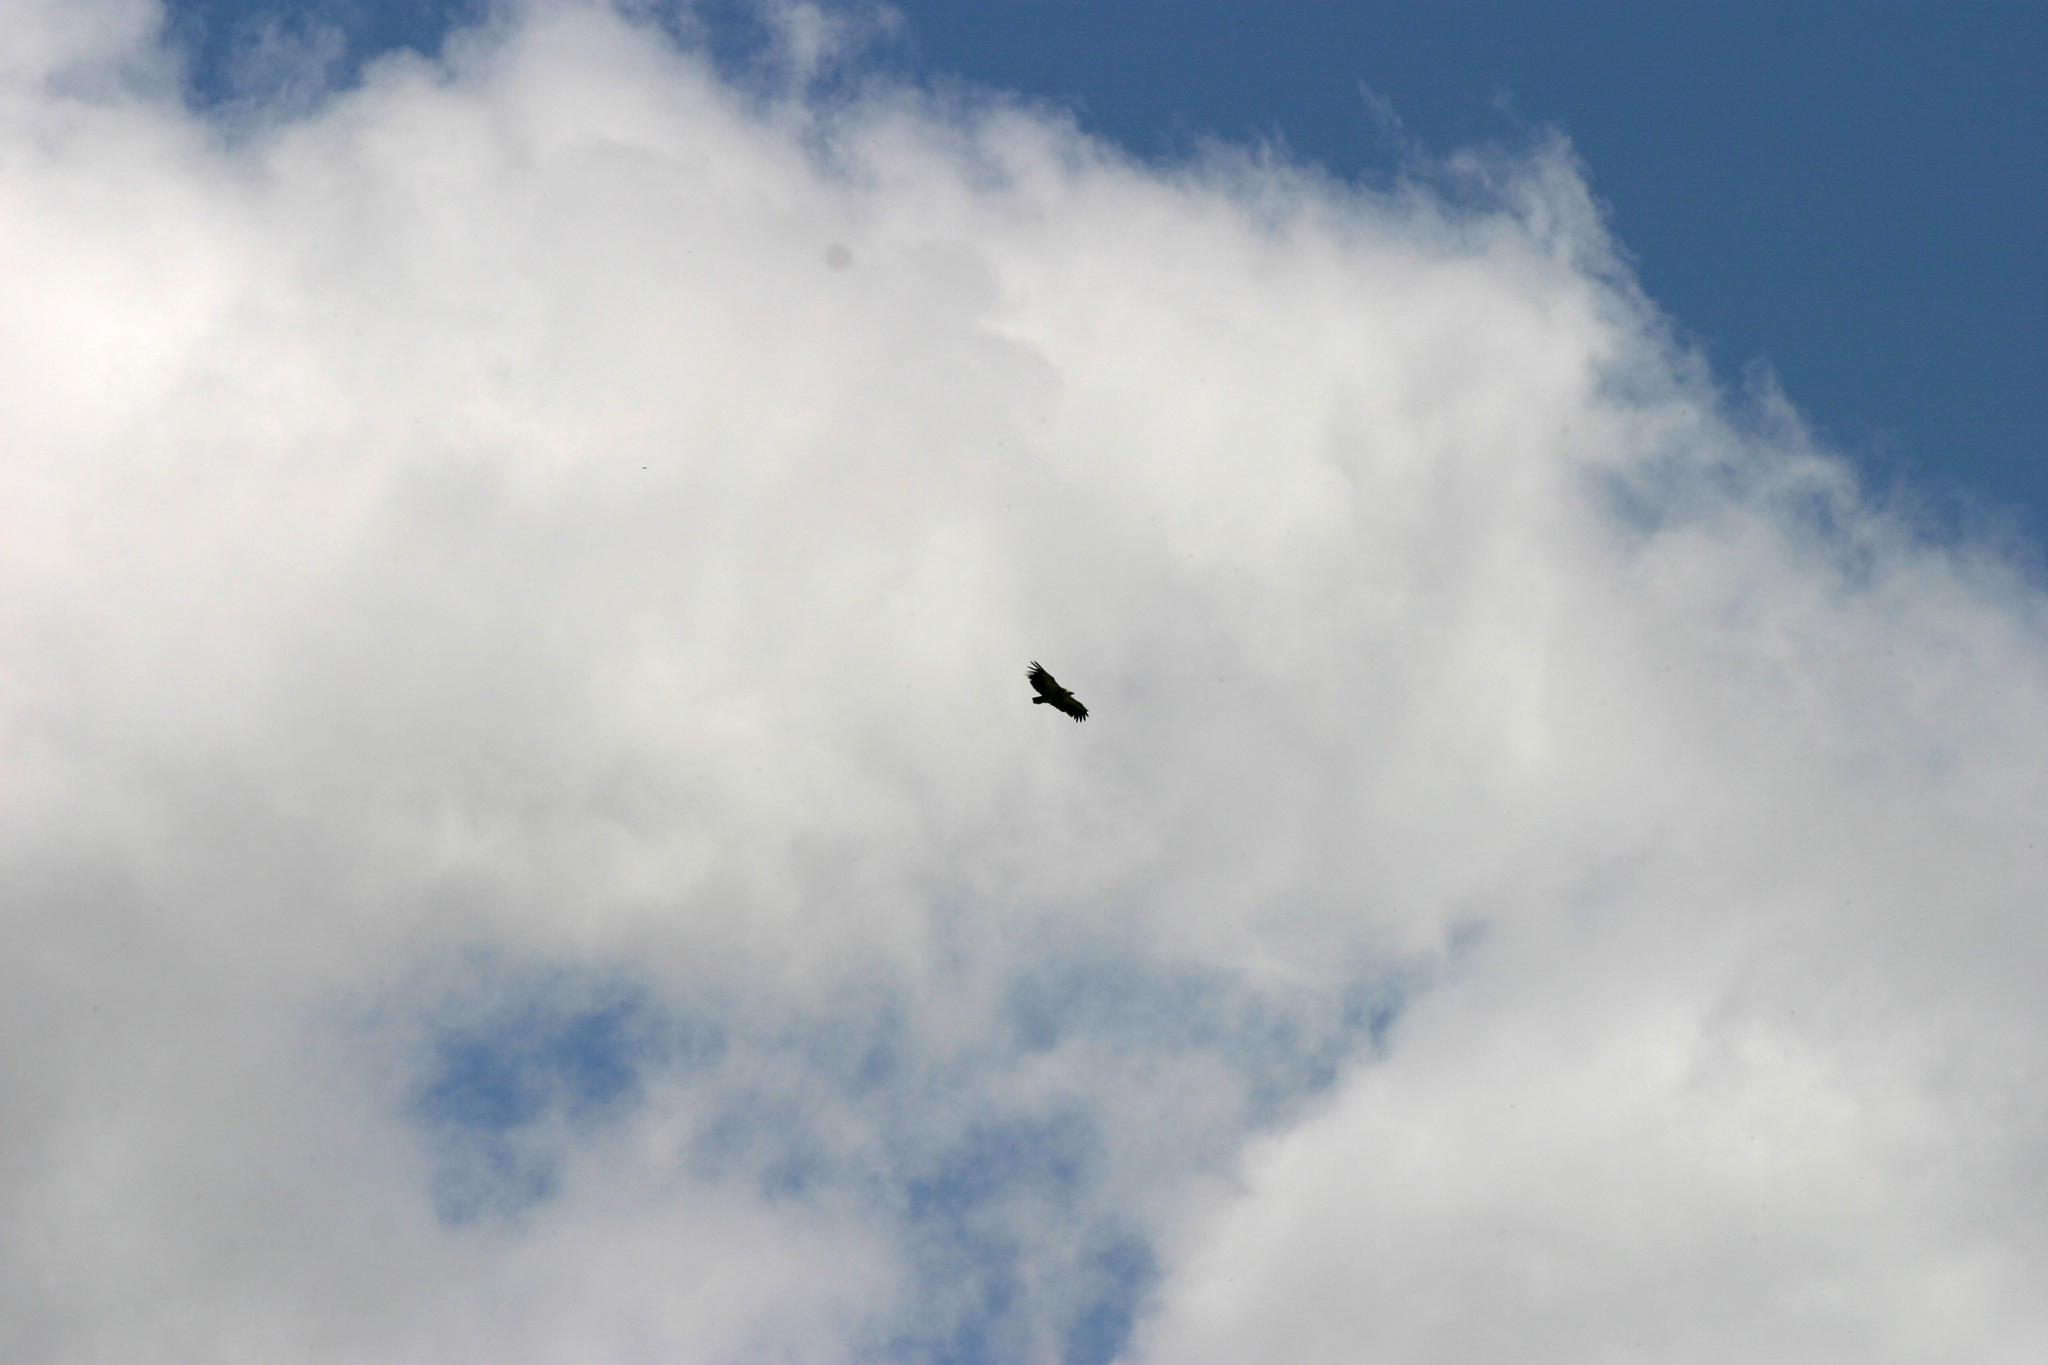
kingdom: Animalia
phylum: Chordata
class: Aves
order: Accipitriformes
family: Accipitridae
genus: Gyps
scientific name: Gyps fulvus
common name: Griffon vulture
